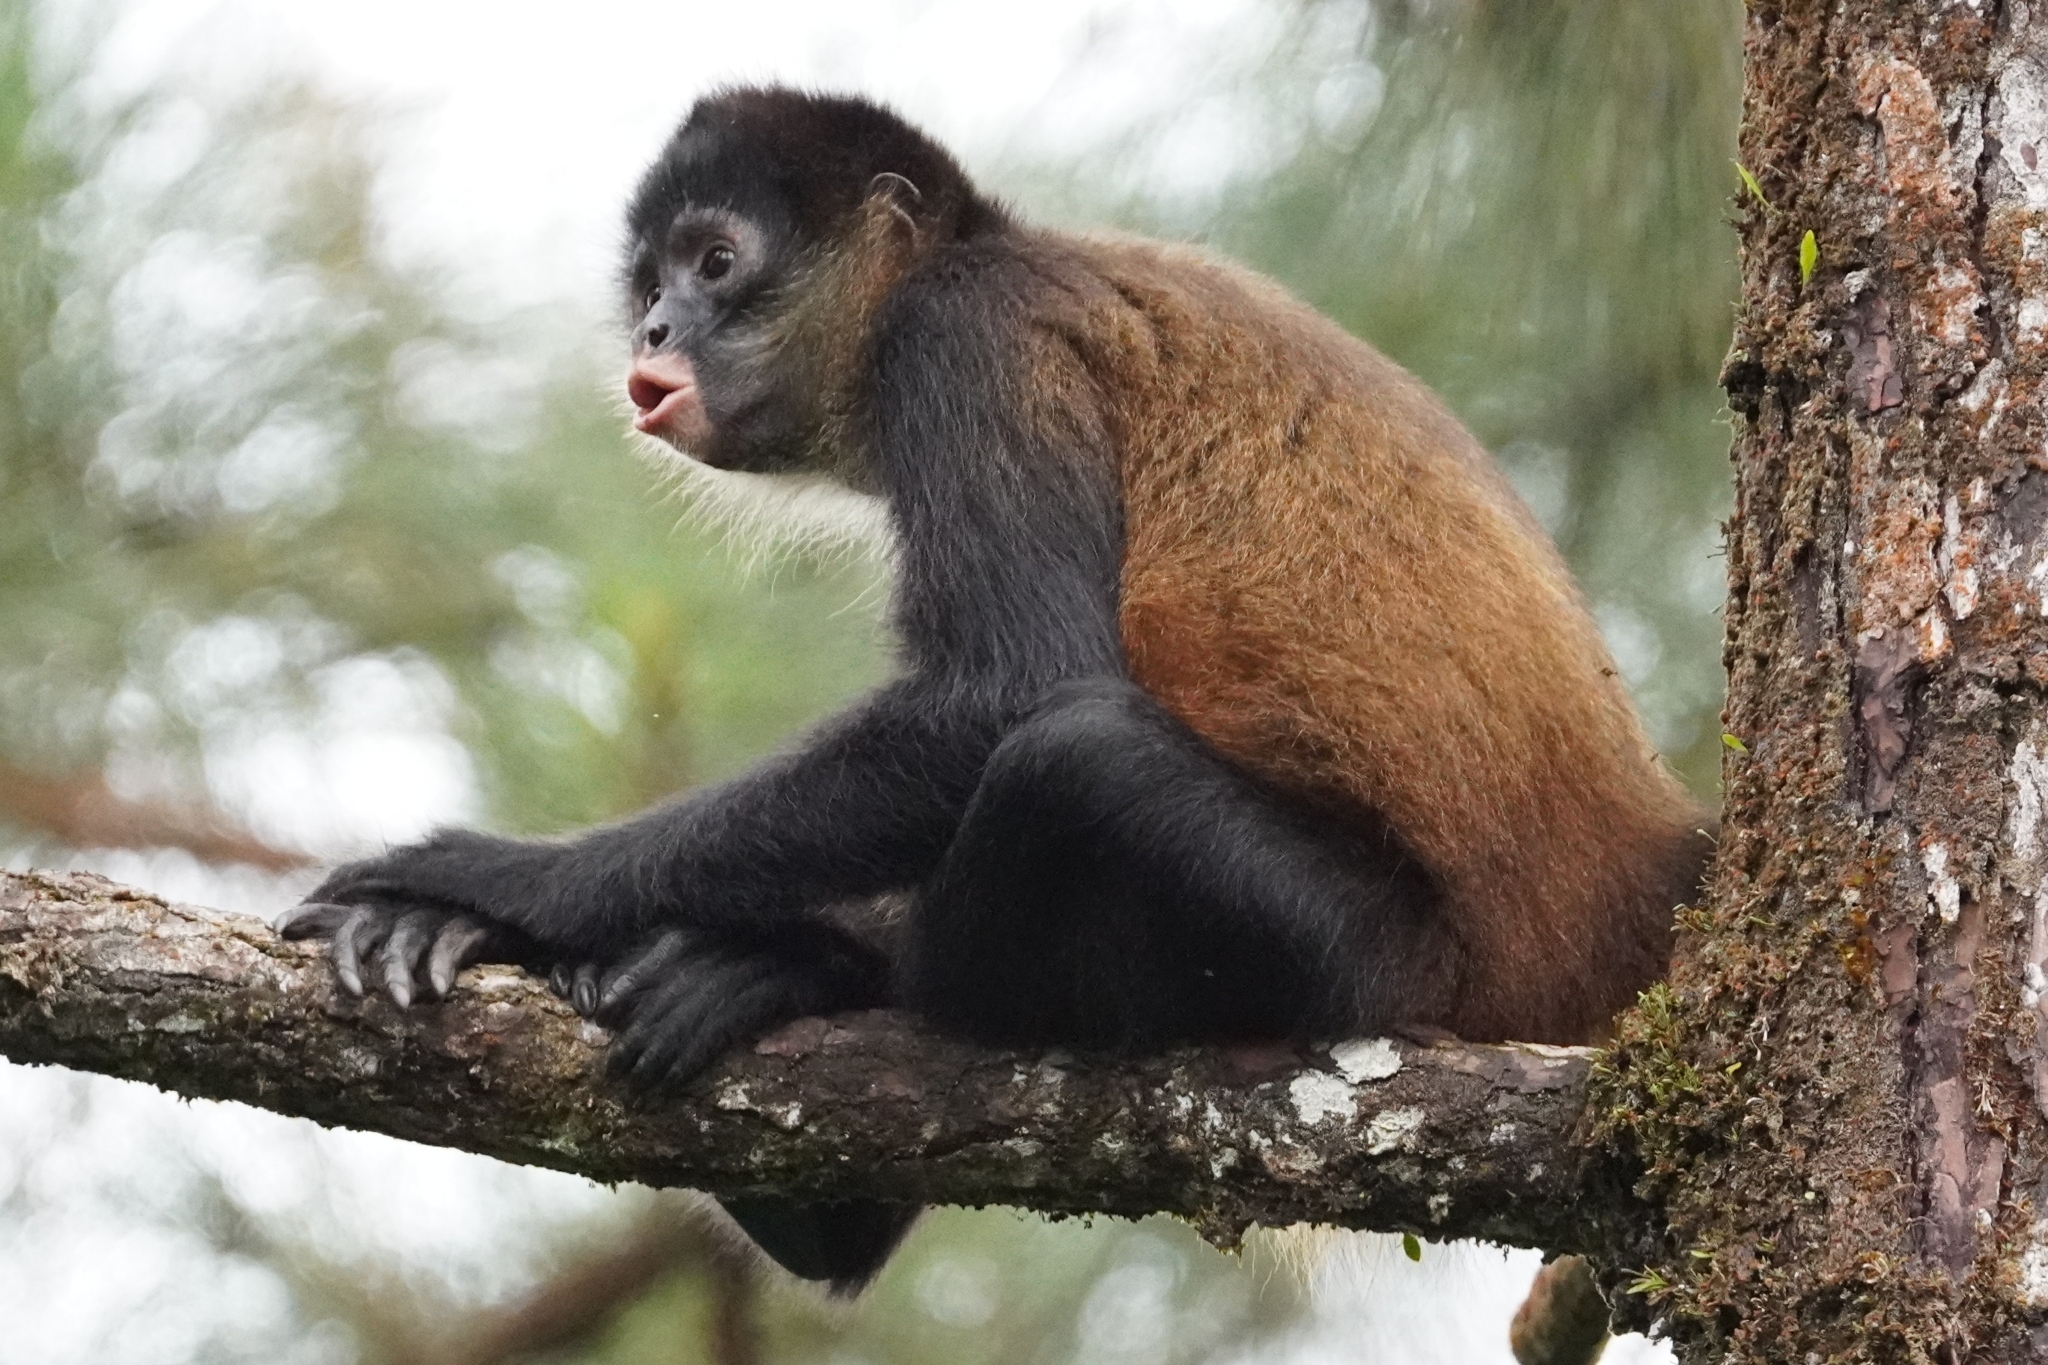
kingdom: Animalia
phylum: Chordata
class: Mammalia
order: Primates
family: Atelidae
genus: Ateles
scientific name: Ateles geoffroyi
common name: Black-handed spider monkey
